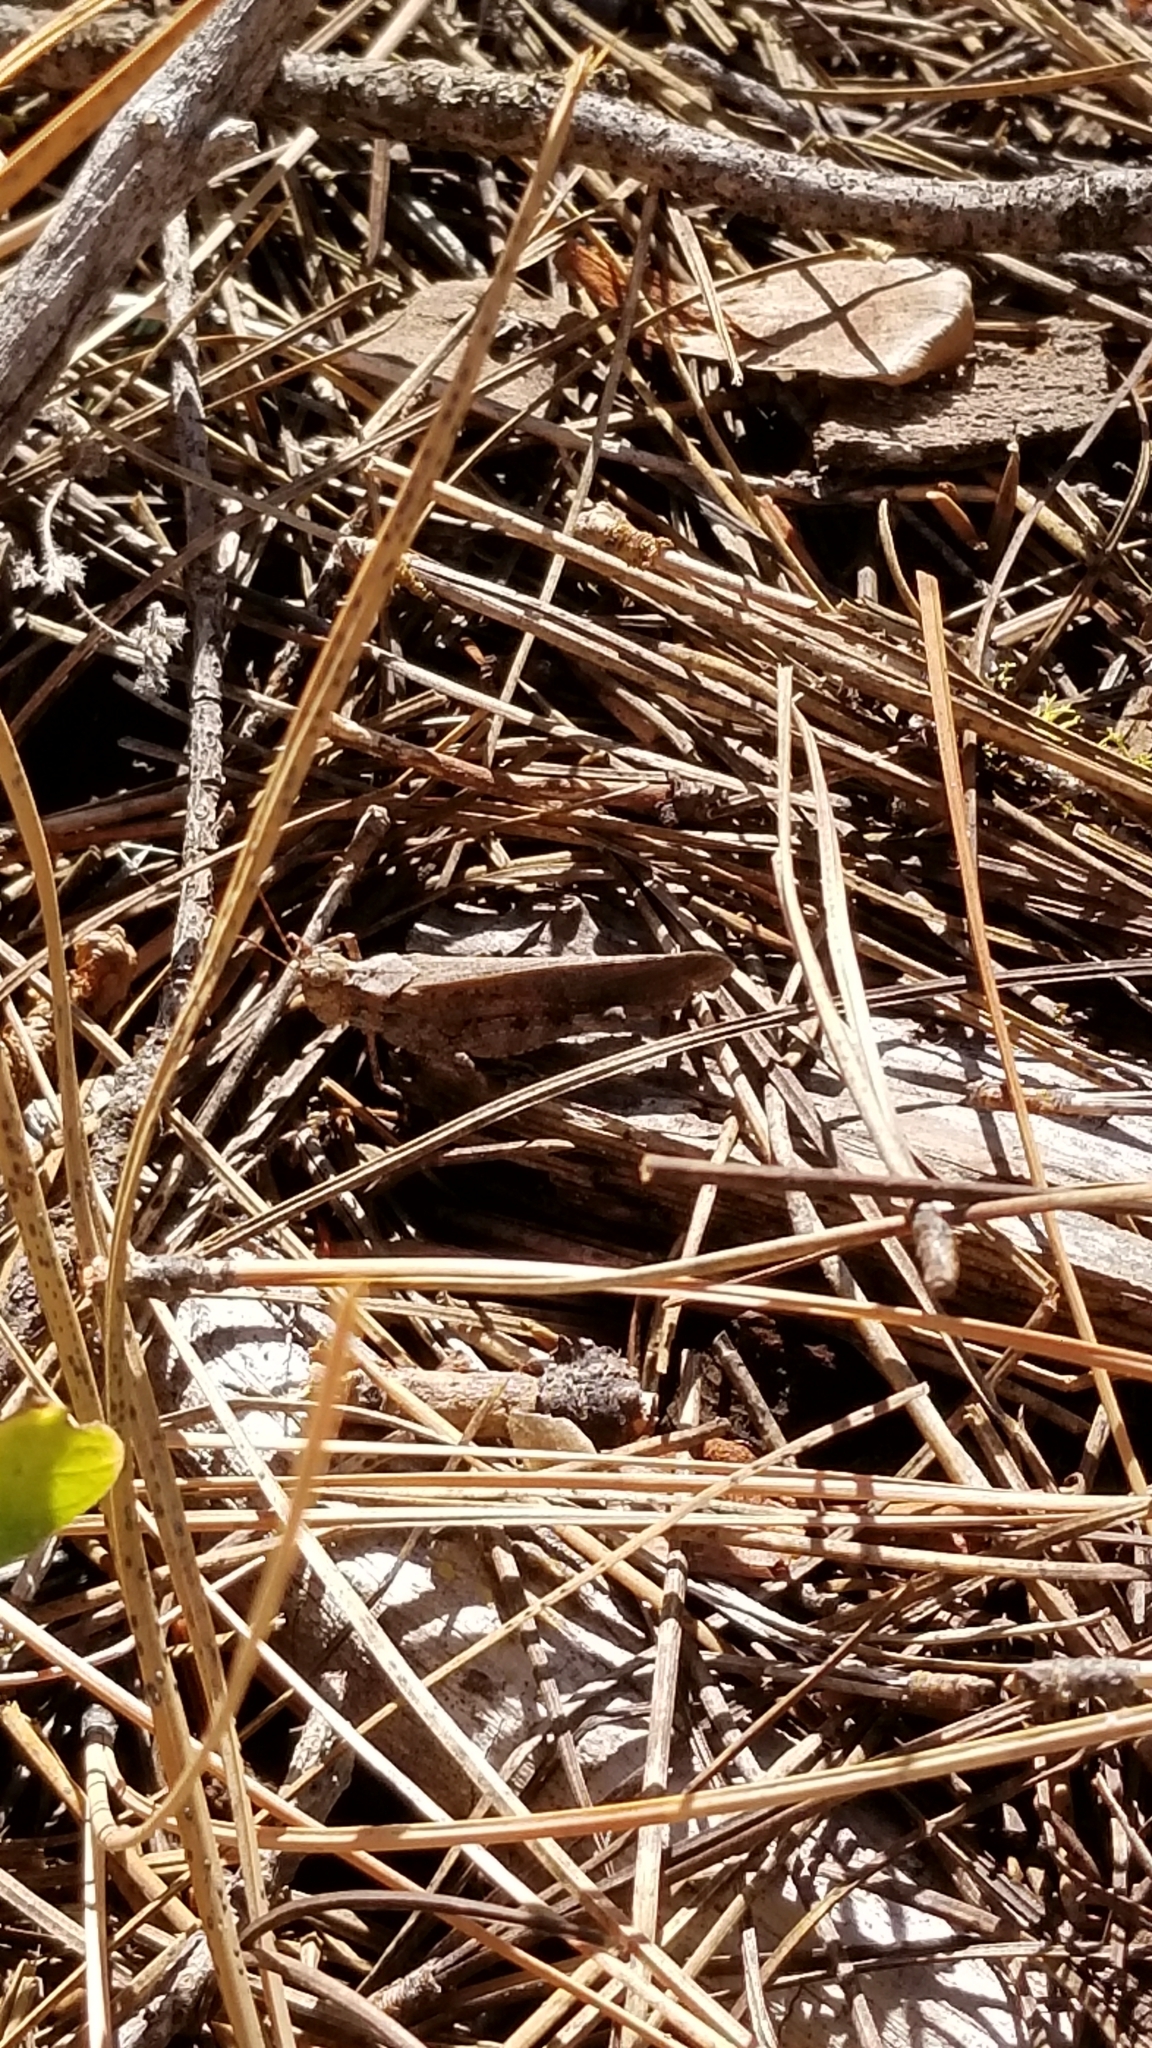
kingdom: Animalia
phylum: Arthropoda
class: Insecta
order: Orthoptera
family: Acrididae
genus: Trimerotropis
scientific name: Trimerotropis verruculata
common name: Crackling forest grasshopper
